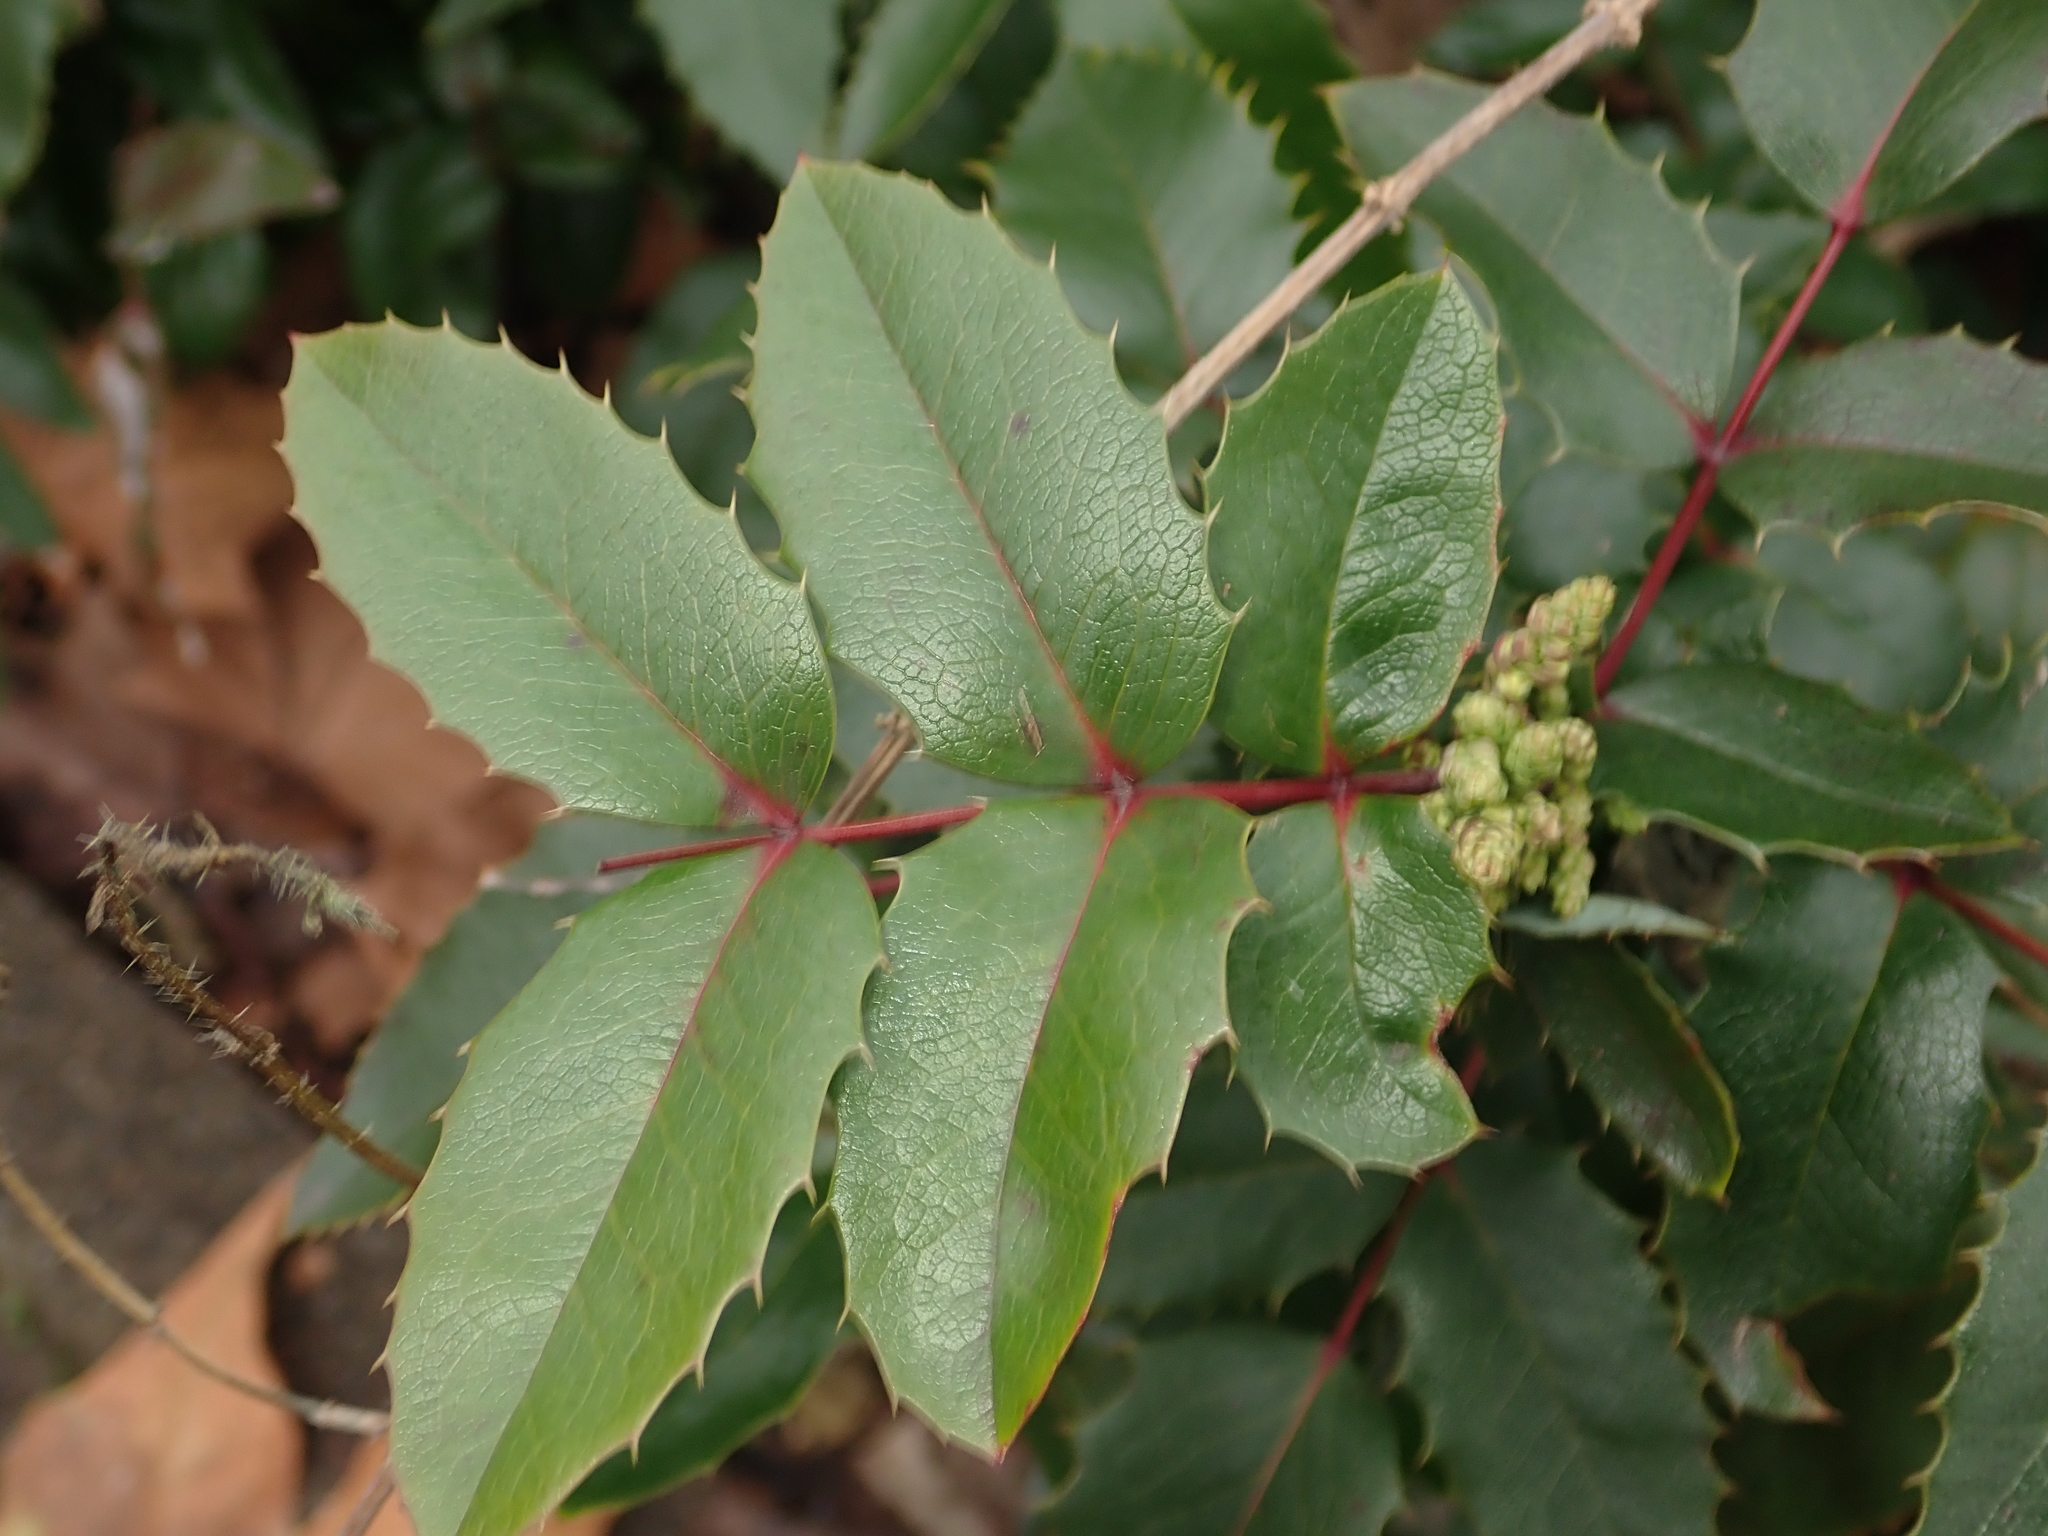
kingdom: Plantae
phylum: Tracheophyta
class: Magnoliopsida
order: Ranunculales
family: Berberidaceae
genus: Mahonia
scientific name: Mahonia aquifolium
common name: Oregon-grape
